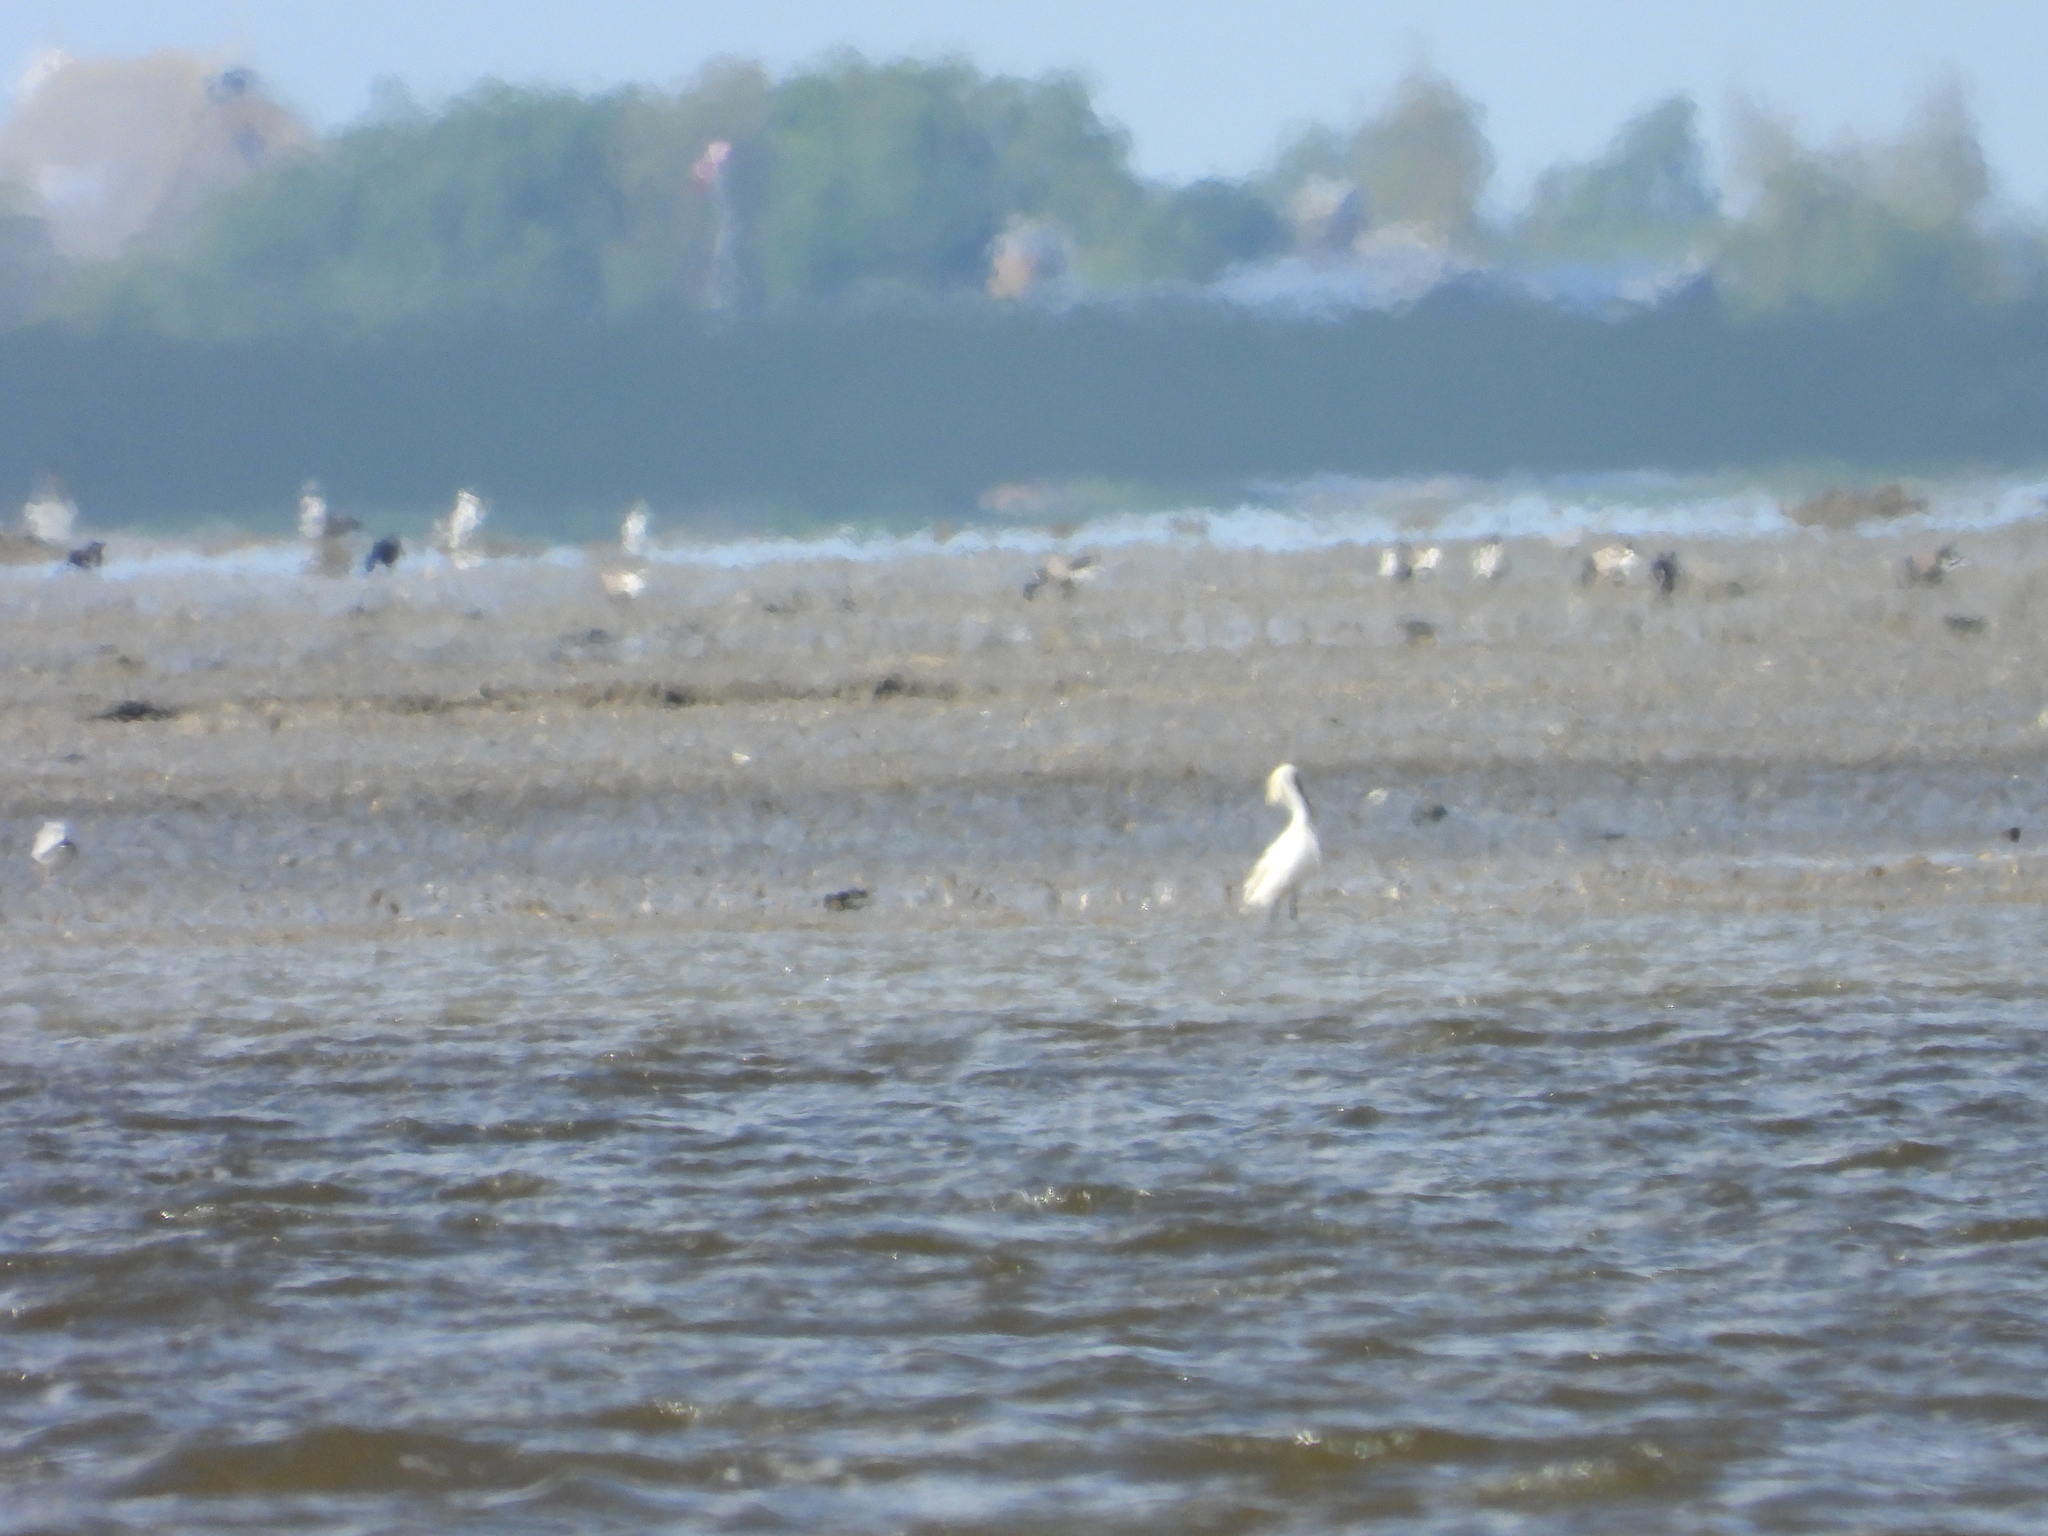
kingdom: Animalia
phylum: Chordata
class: Aves
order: Pelecaniformes
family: Threskiornithidae
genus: Platalea
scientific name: Platalea leucorodia
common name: Eurasian spoonbill
